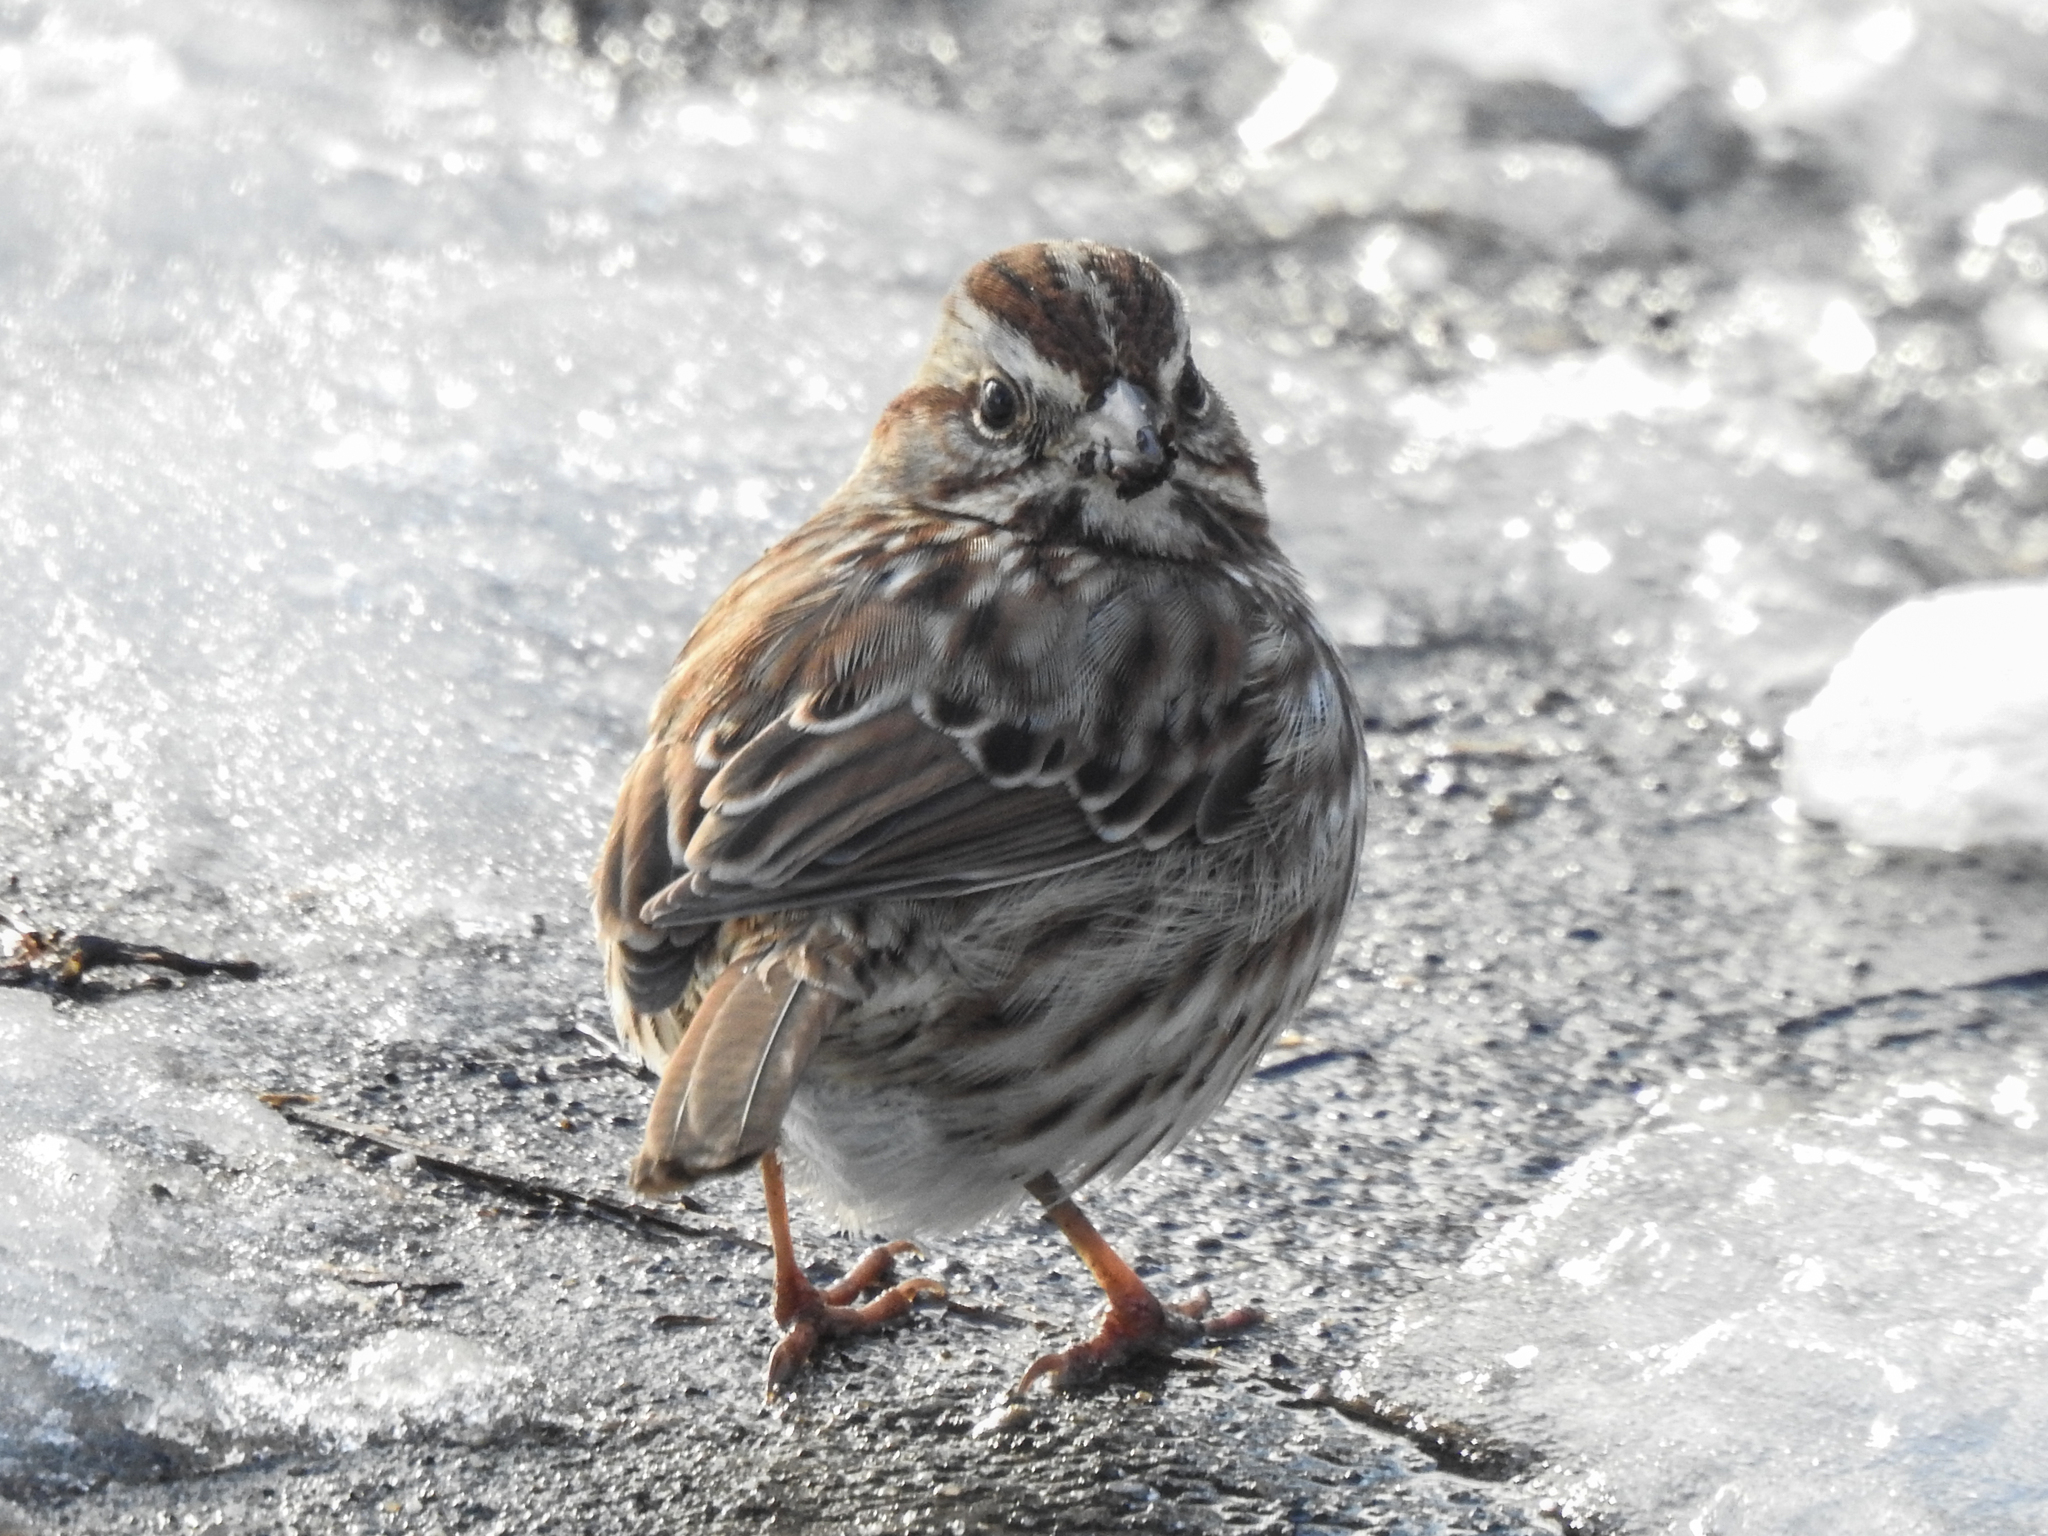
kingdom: Animalia
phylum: Chordata
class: Aves
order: Passeriformes
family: Passerellidae
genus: Melospiza
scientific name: Melospiza melodia
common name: Song sparrow
